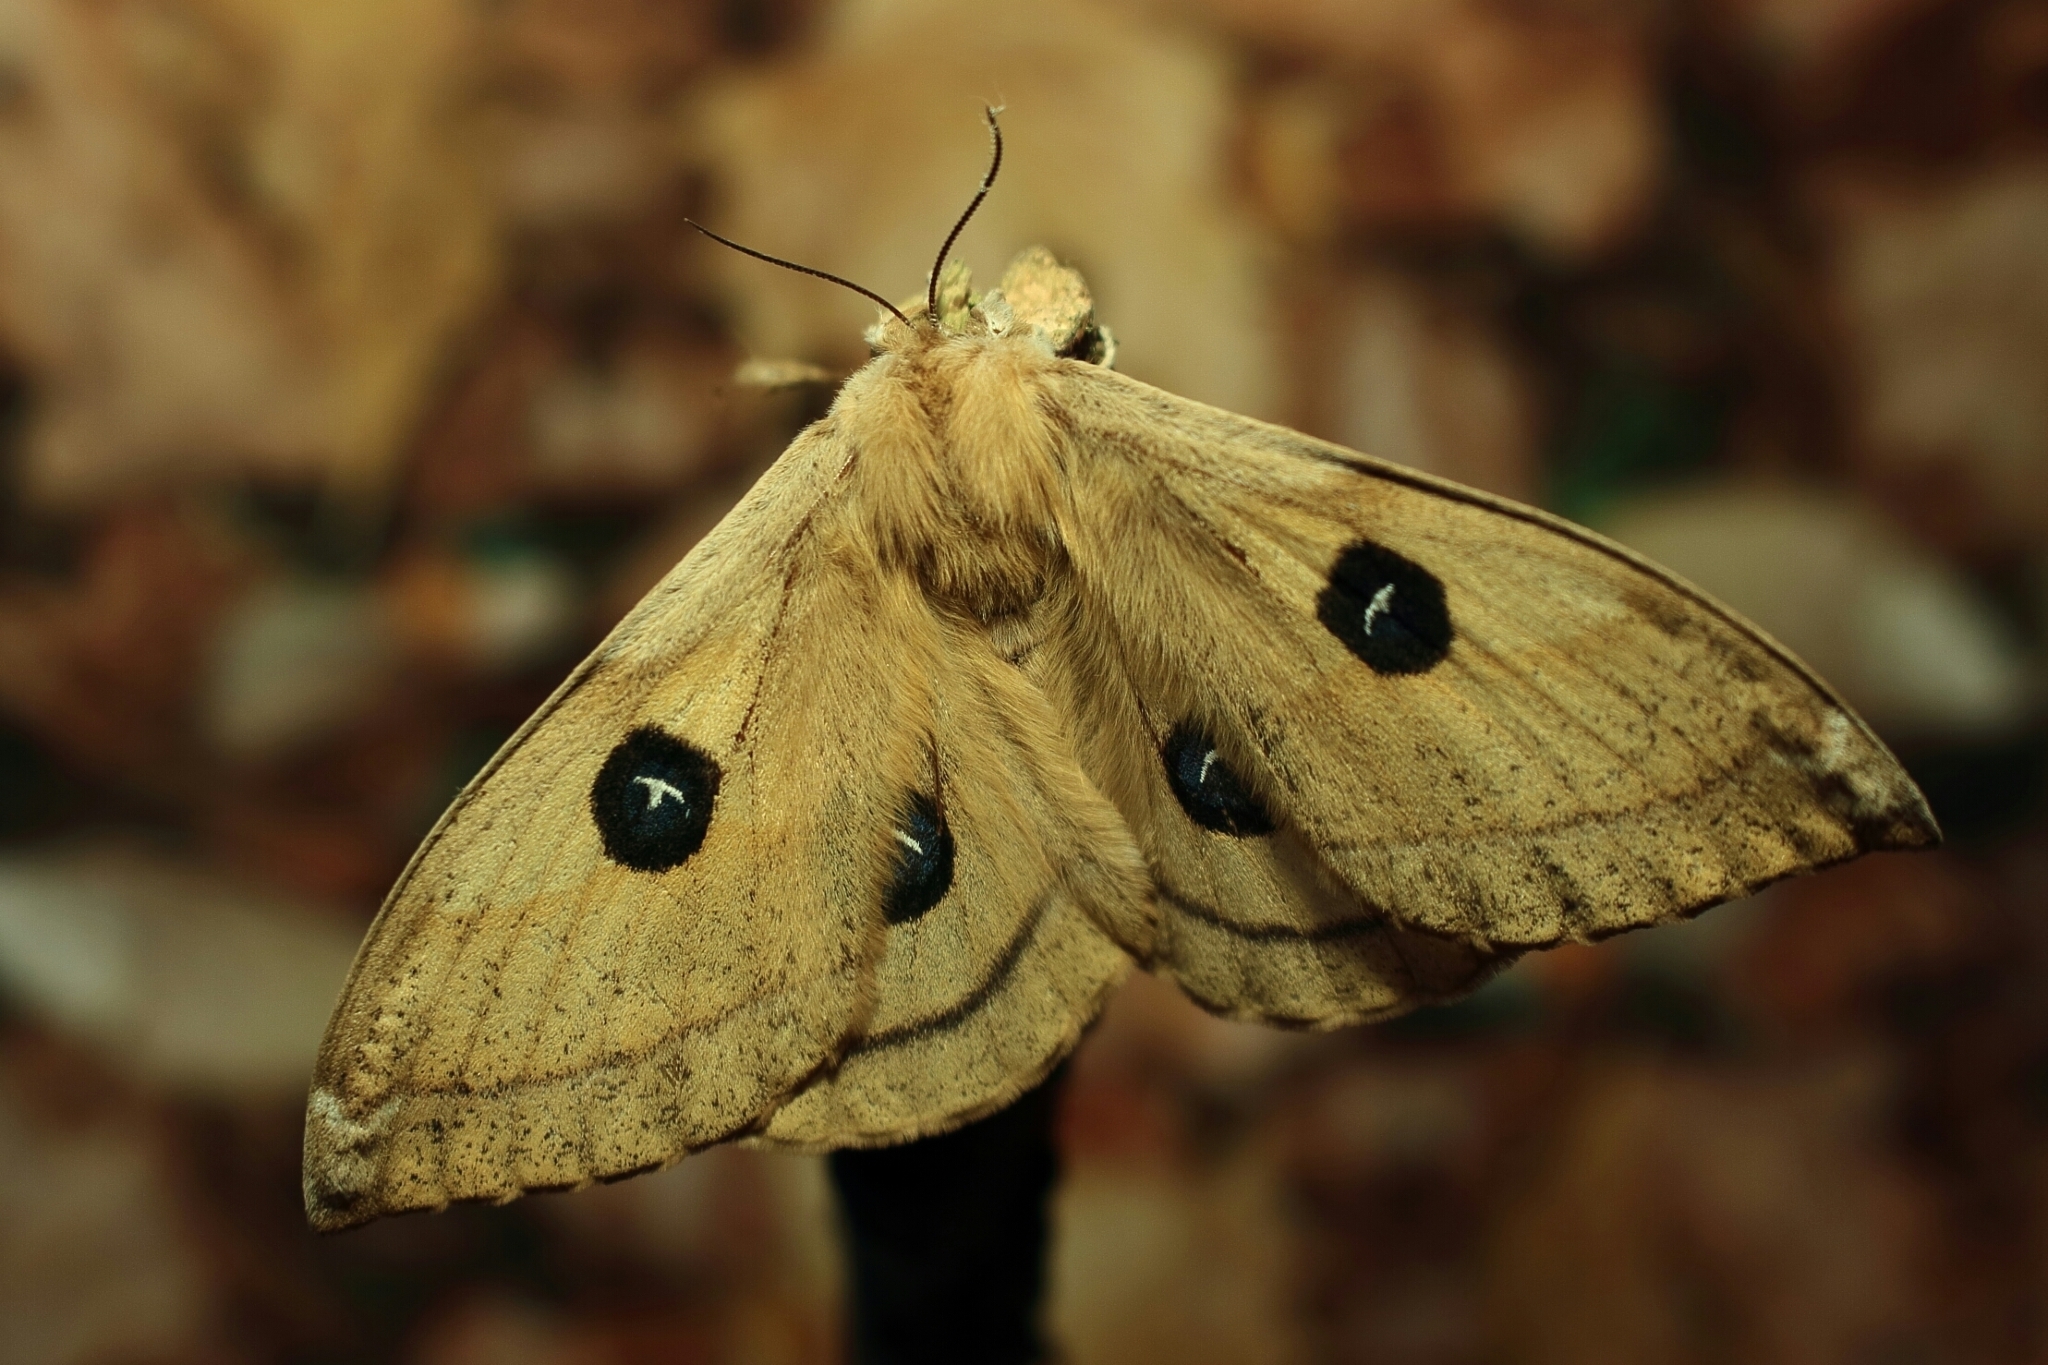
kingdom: Animalia
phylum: Arthropoda
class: Insecta
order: Lepidoptera
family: Saturniidae
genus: Aglia
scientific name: Aglia tau
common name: Tau emperor
